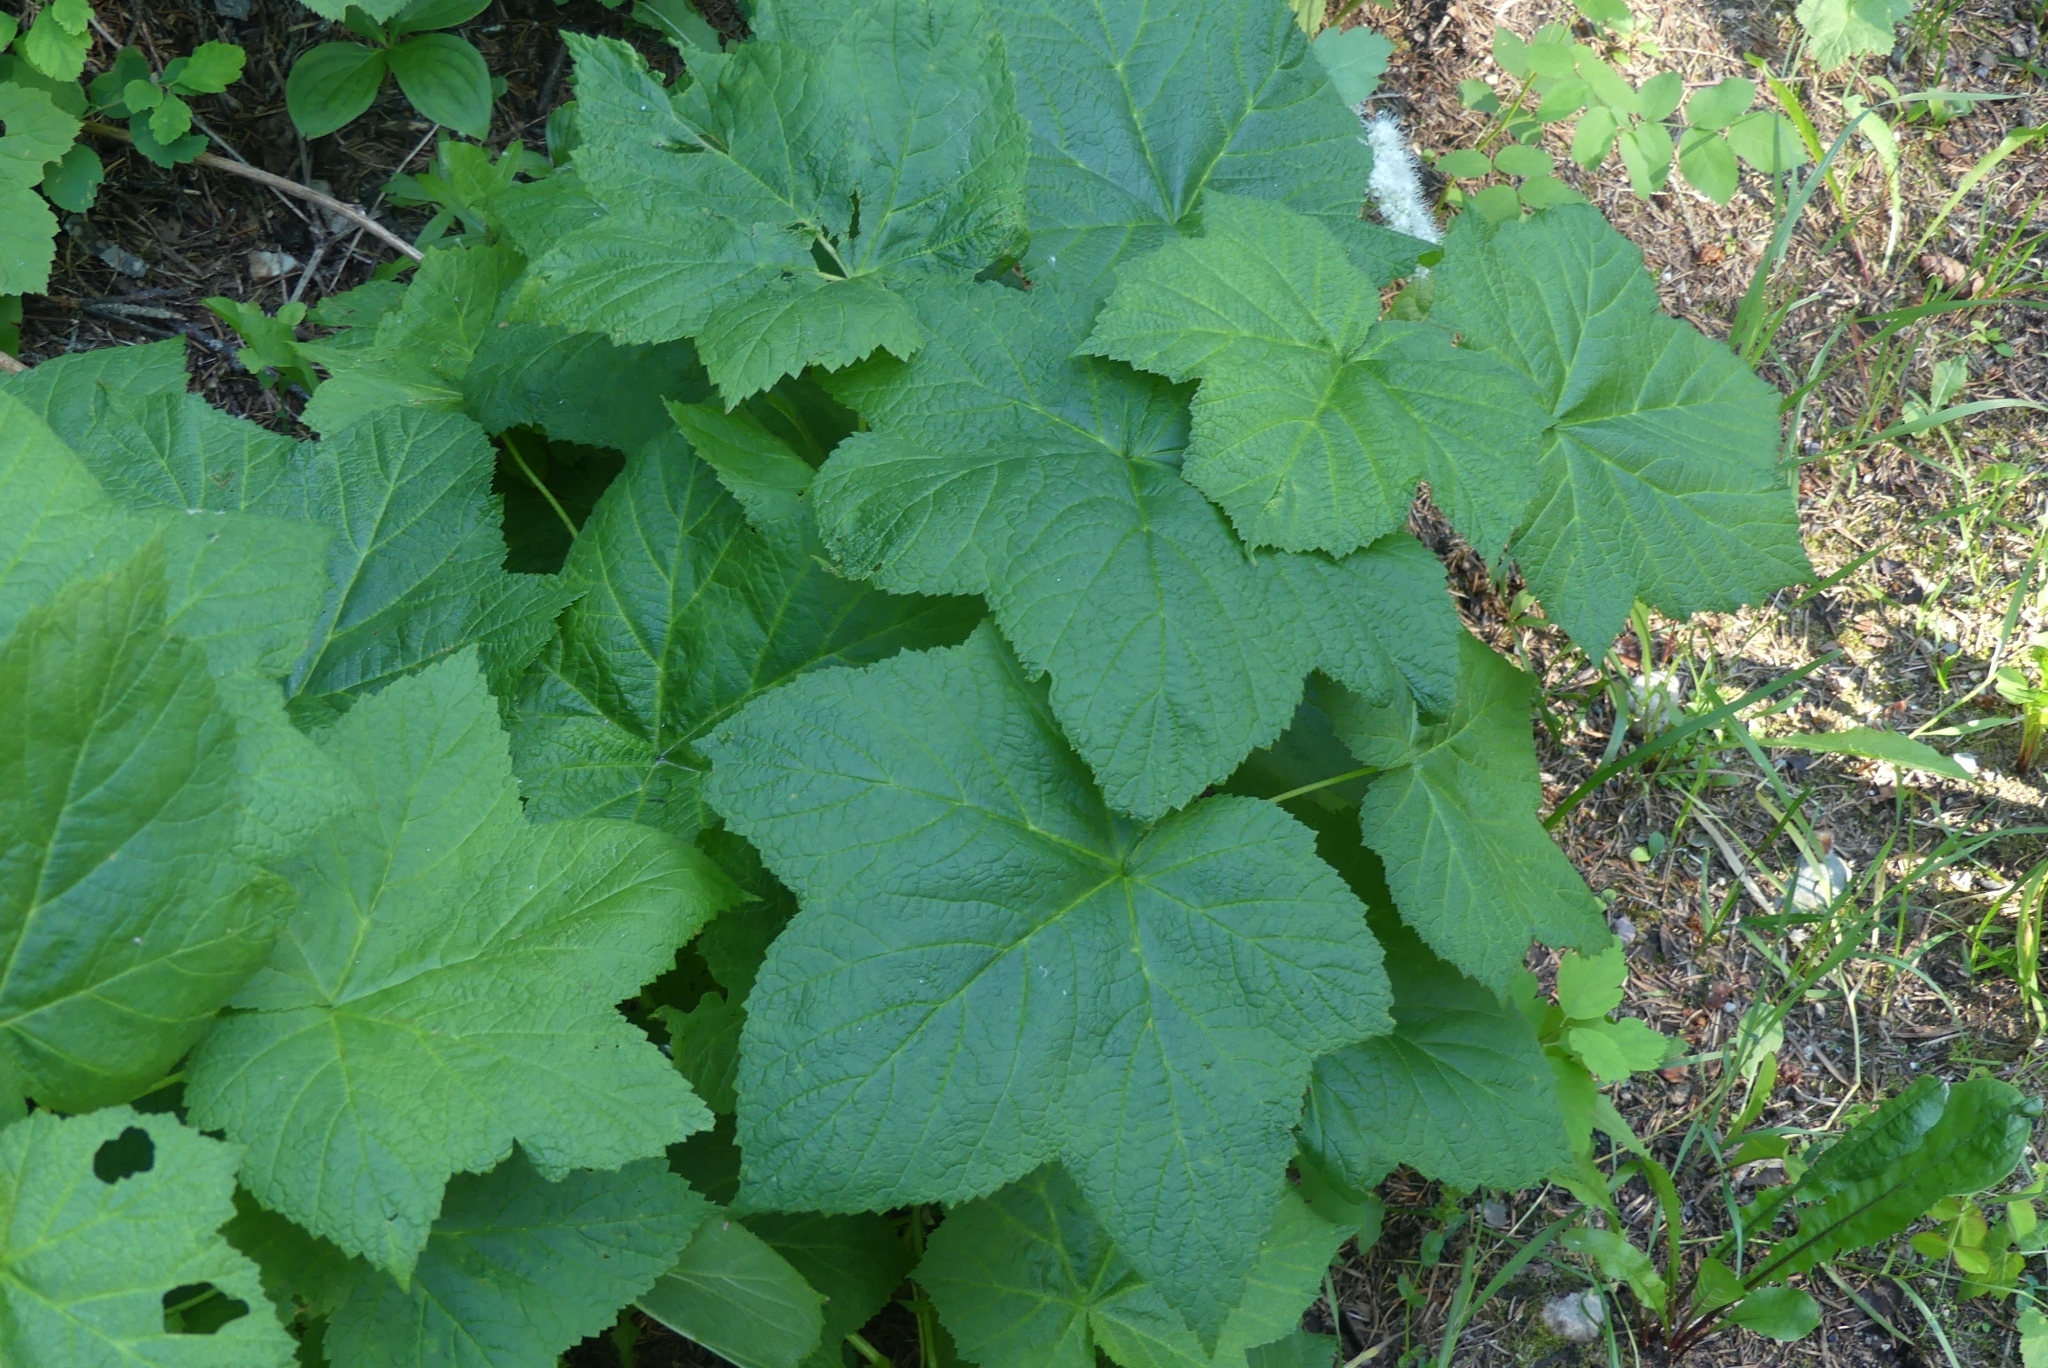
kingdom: Plantae
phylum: Tracheophyta
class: Magnoliopsida
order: Rosales
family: Rosaceae
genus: Rubus
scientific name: Rubus parviflorus
